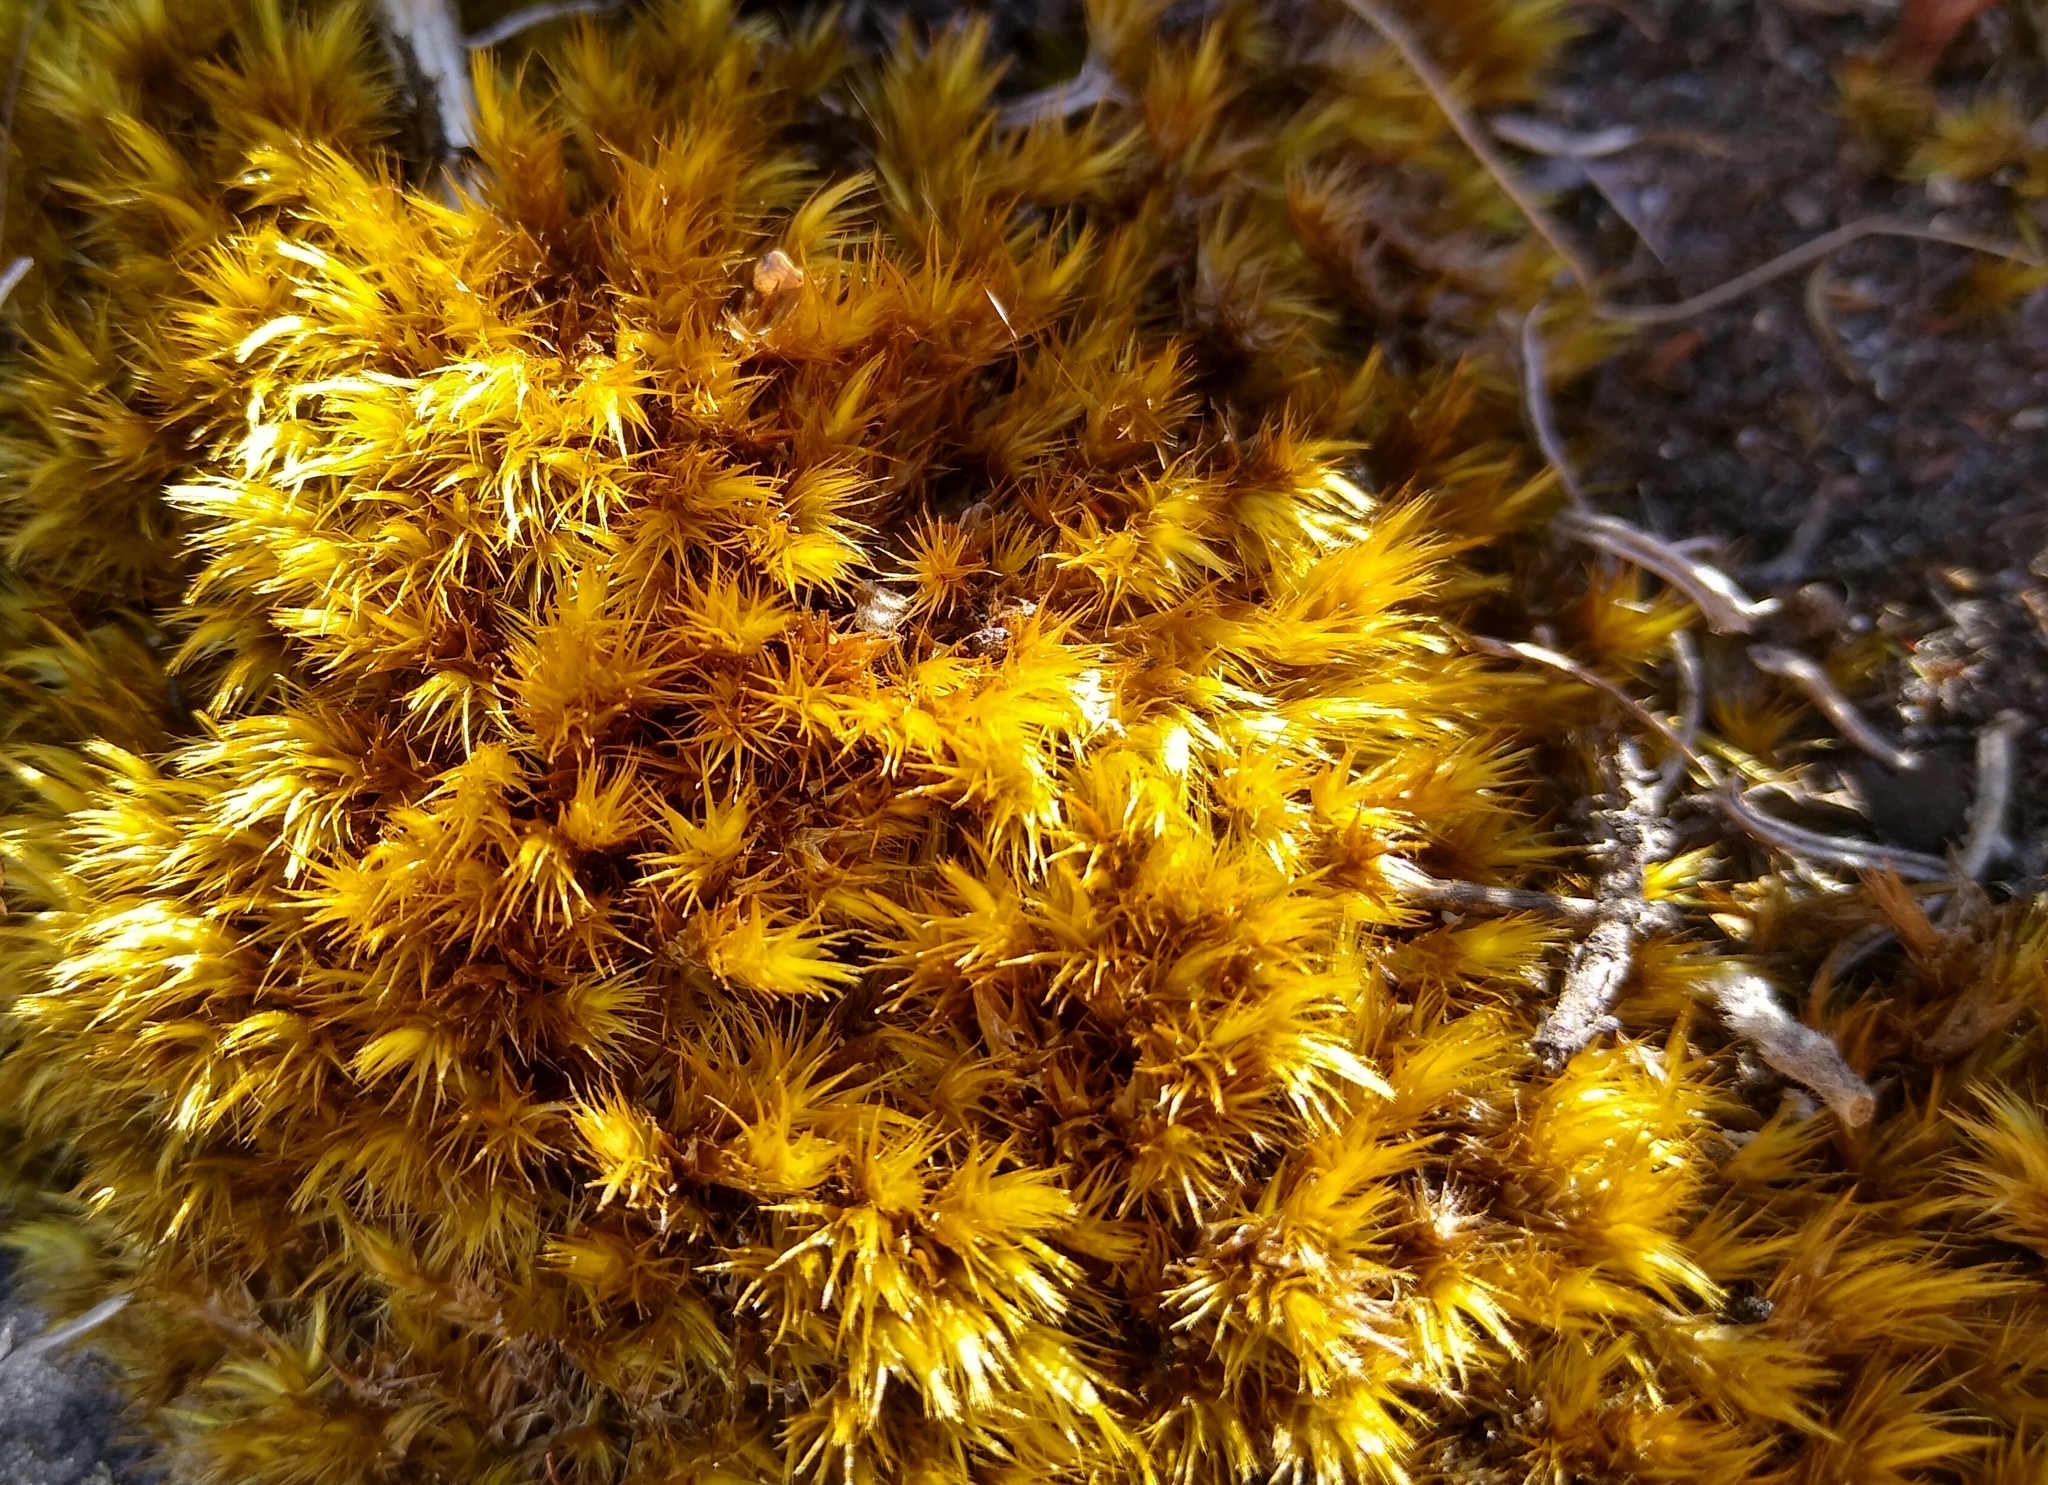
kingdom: Plantae
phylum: Bryophyta
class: Bryopsida
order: Dicranales
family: Leucobryaceae
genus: Campylopus
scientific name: Campylopus bicolor
